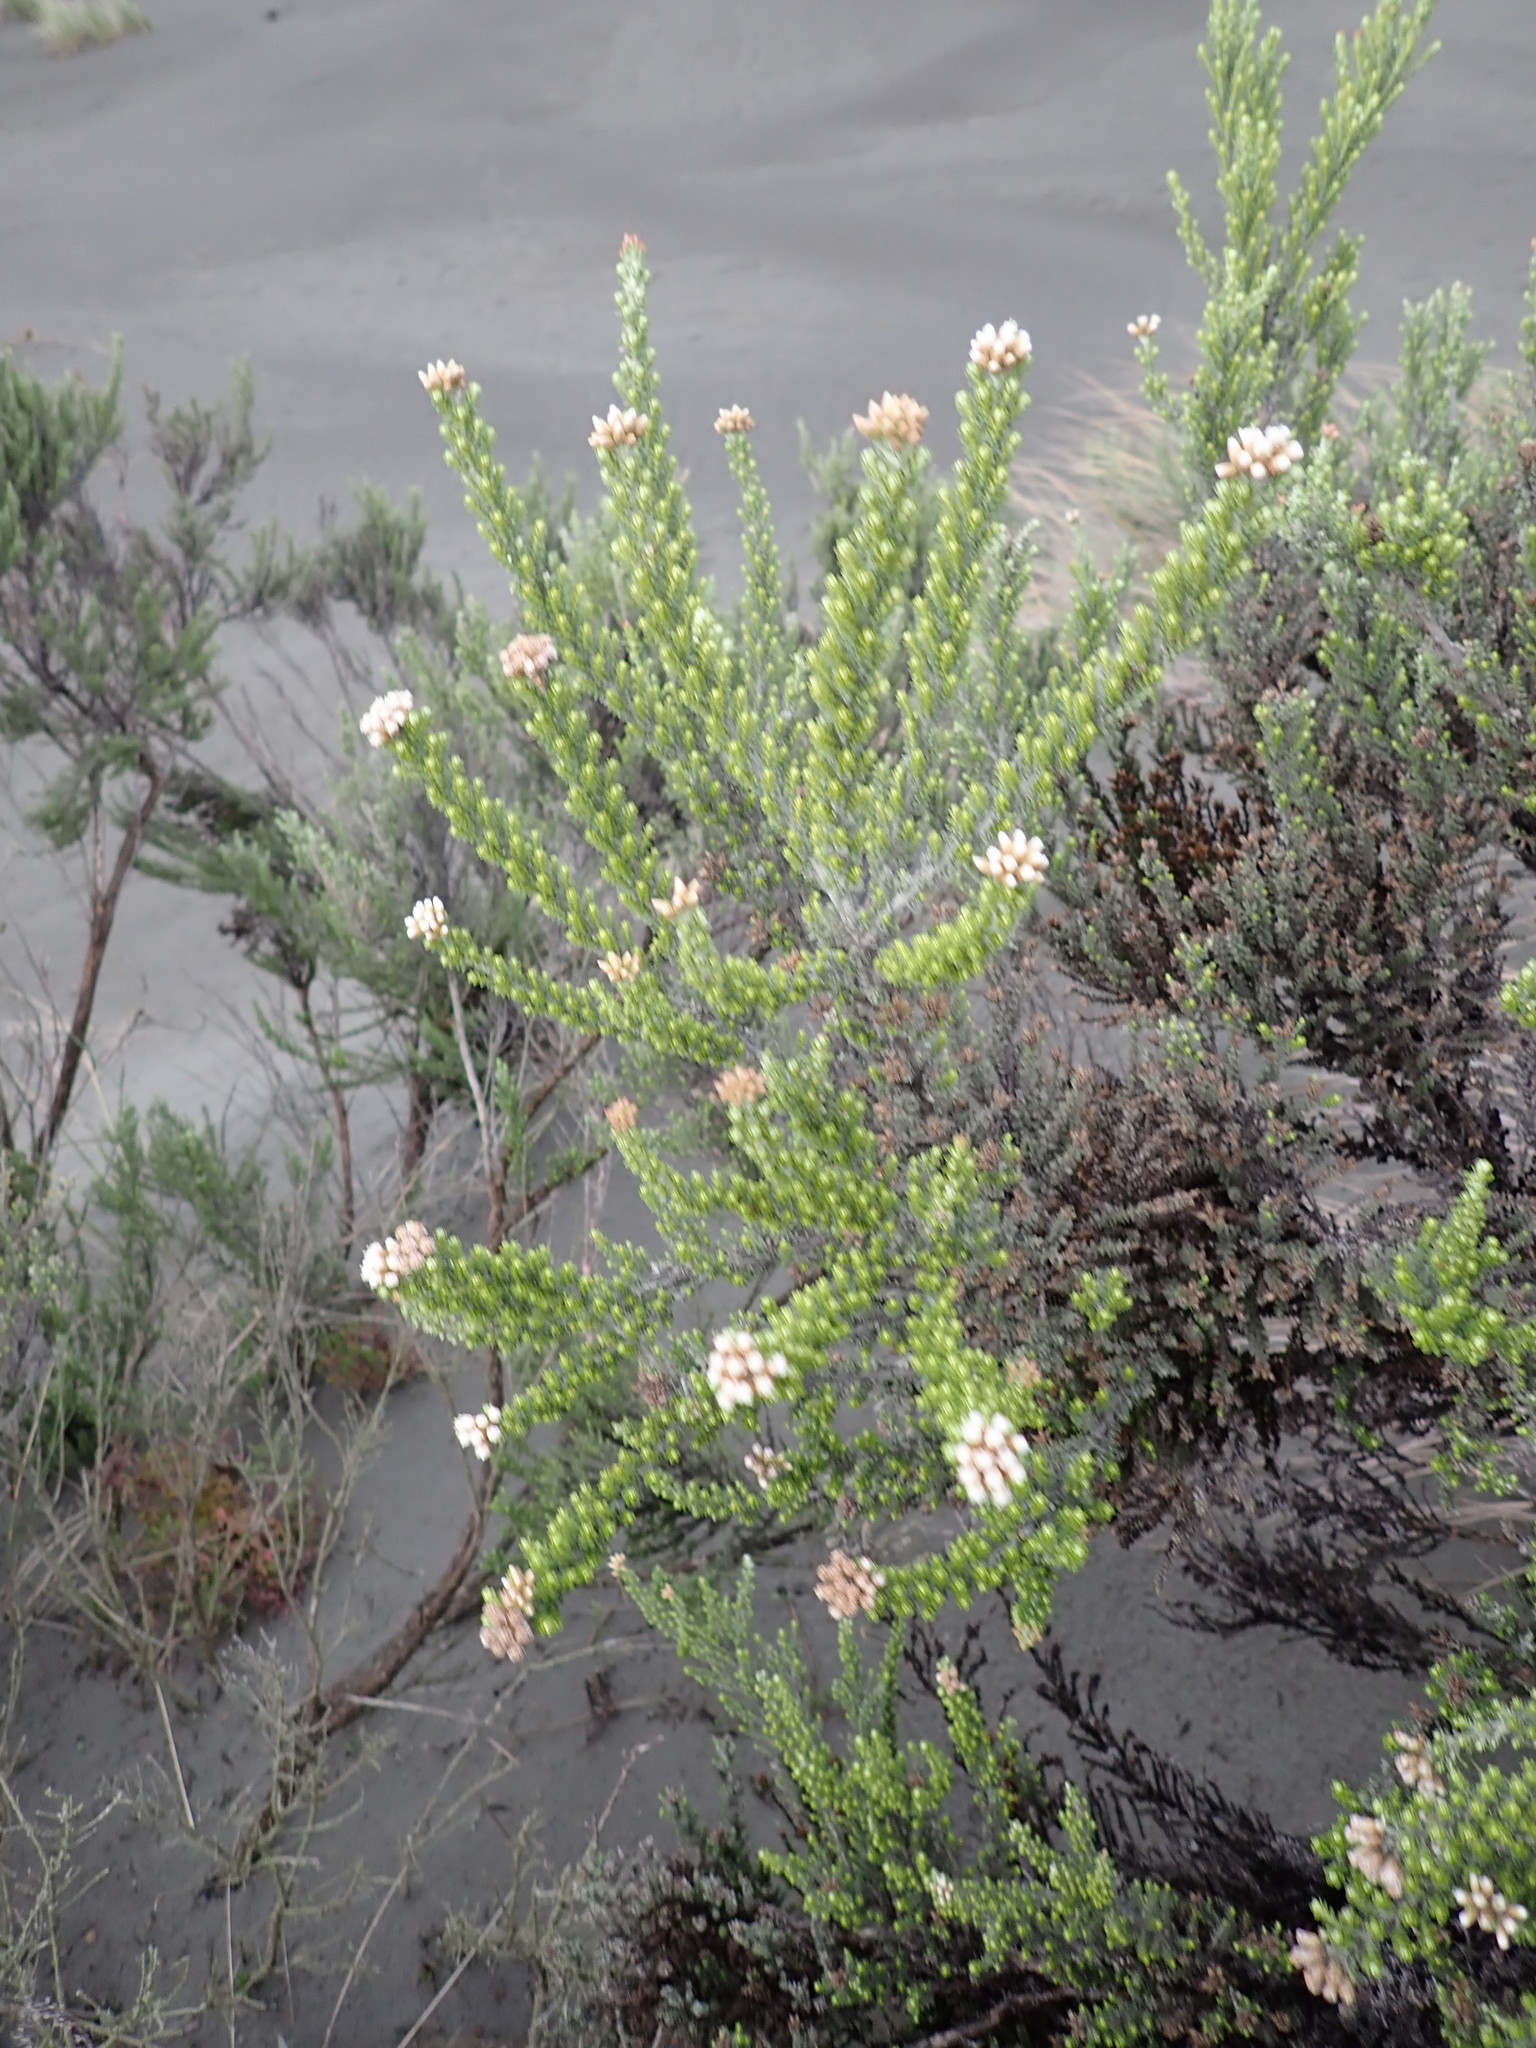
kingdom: Plantae
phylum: Tracheophyta
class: Magnoliopsida
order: Asterales
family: Asteraceae
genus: Ozothamnus
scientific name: Ozothamnus leptophyllus
